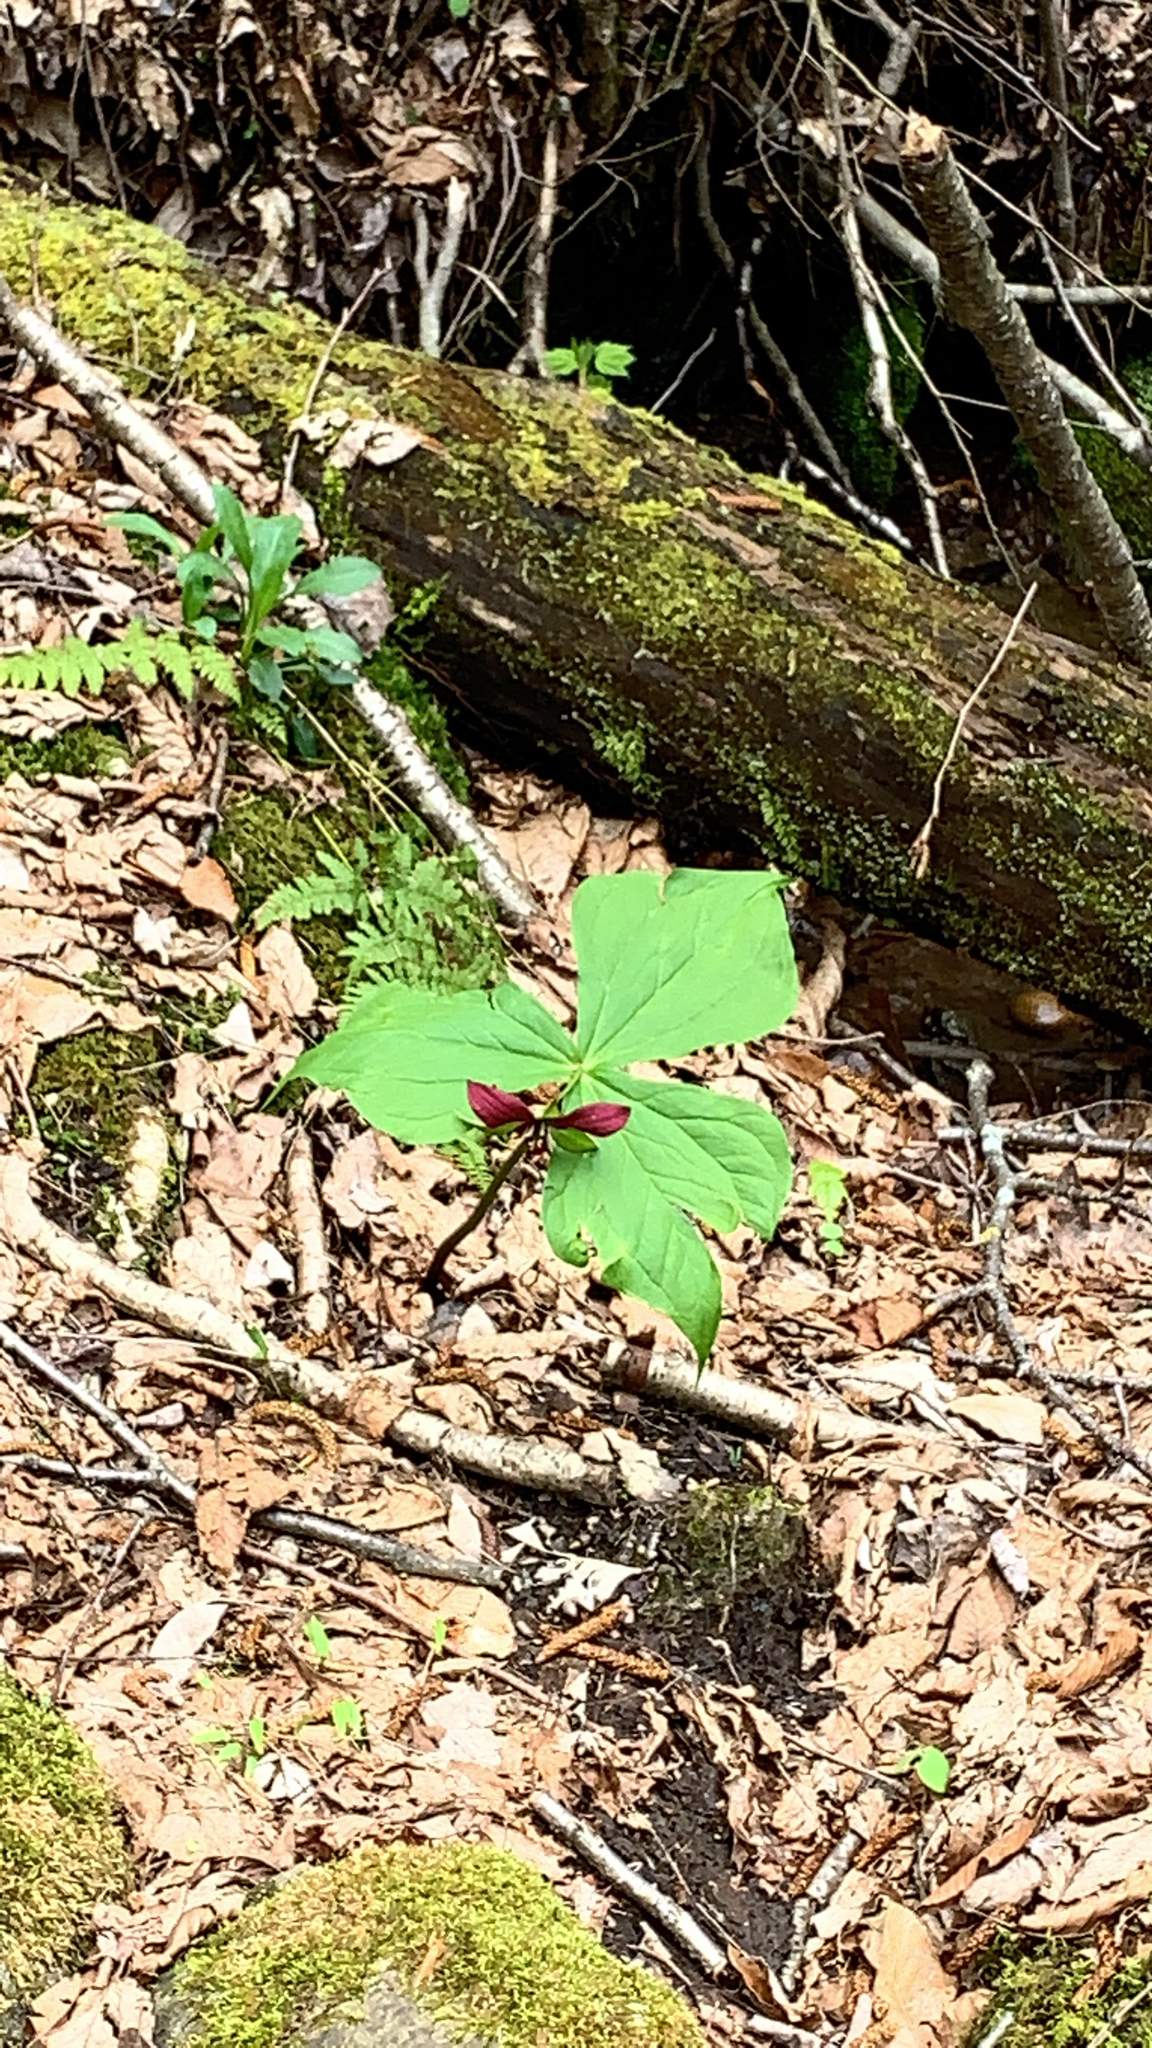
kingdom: Plantae
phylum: Tracheophyta
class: Liliopsida
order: Liliales
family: Melanthiaceae
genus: Trillium
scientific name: Trillium erectum
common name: Purple trillium
